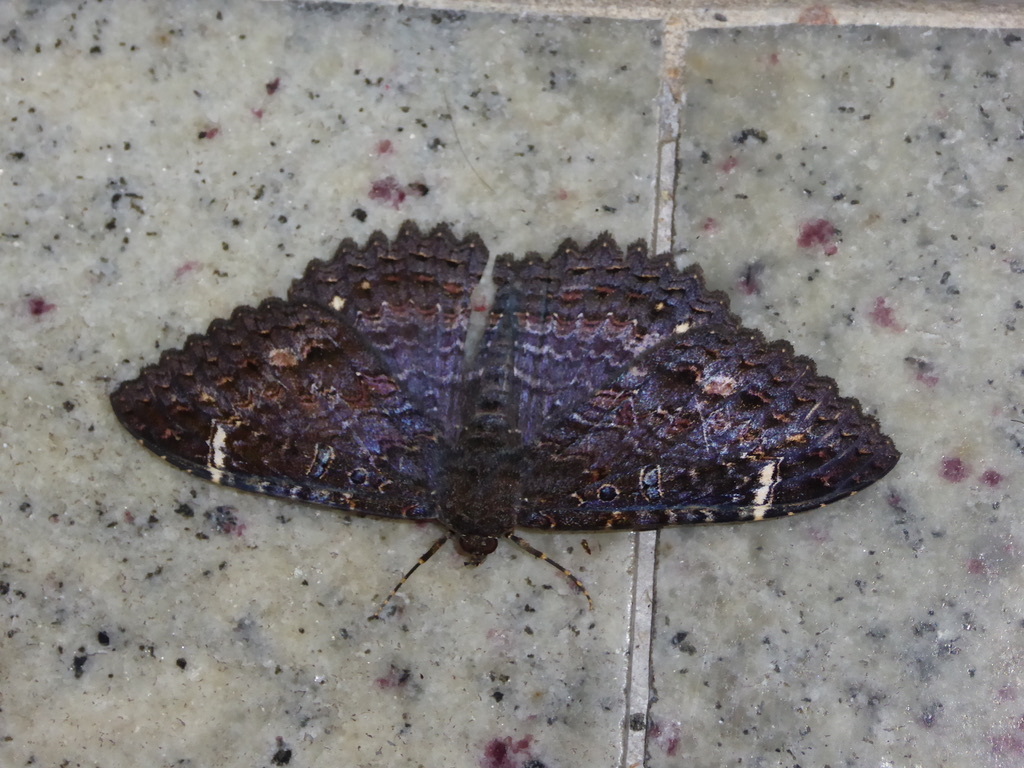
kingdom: Animalia
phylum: Arthropoda
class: Insecta
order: Lepidoptera
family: Erebidae
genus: Letis
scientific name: Letis Syrnia hypnois
